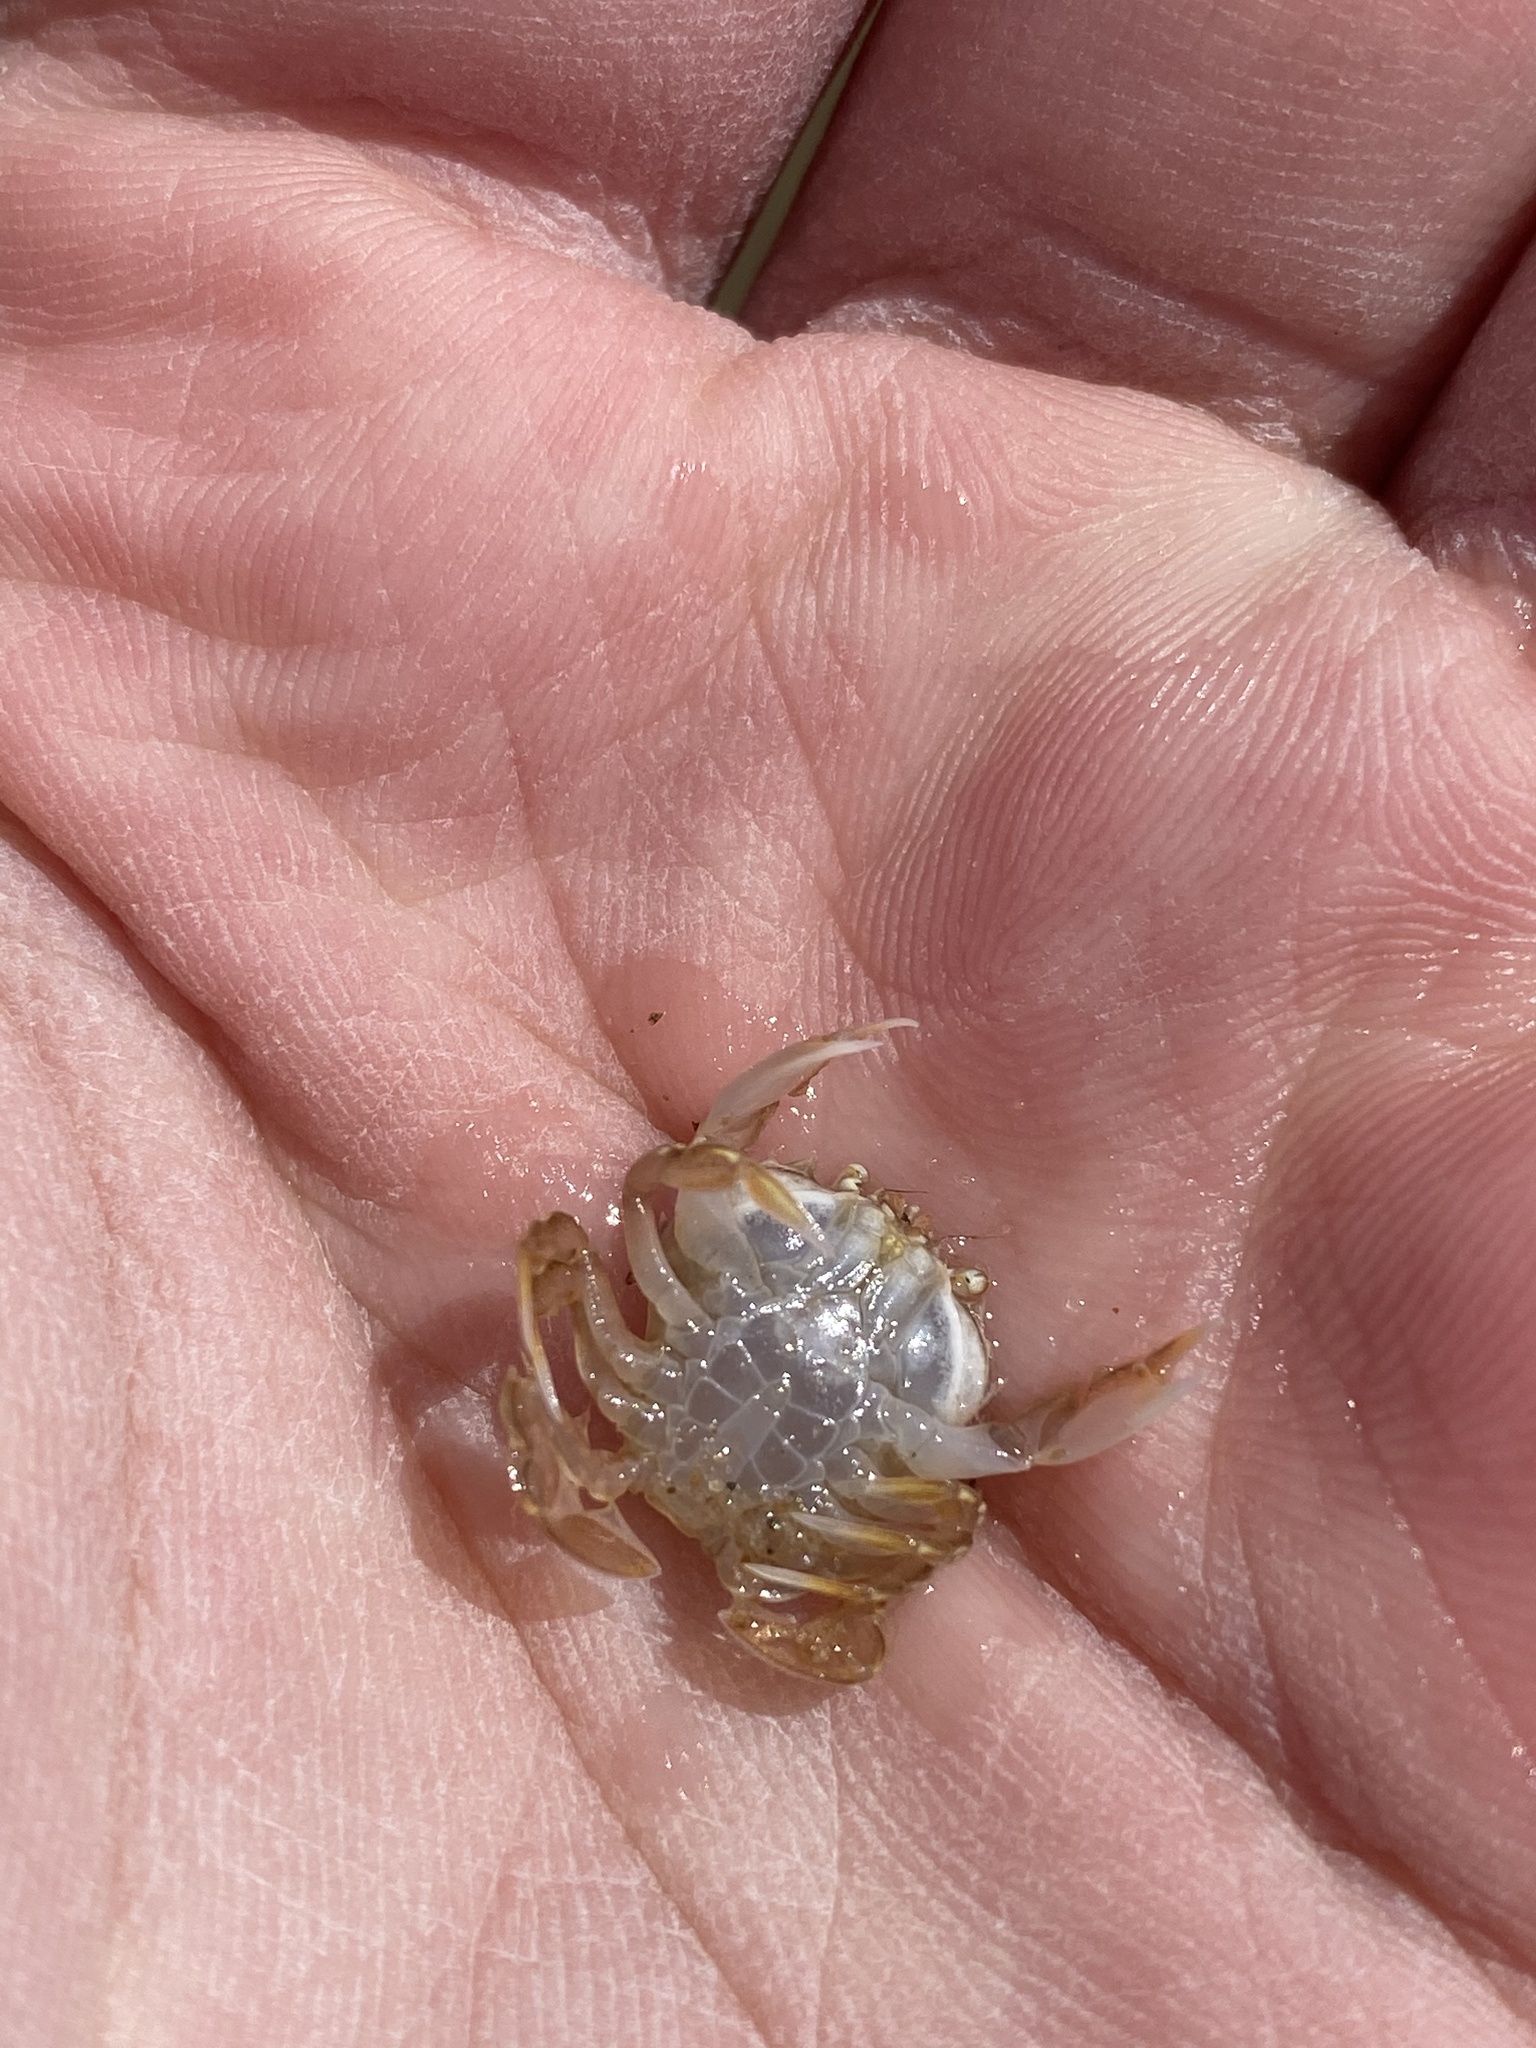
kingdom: Animalia
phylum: Arthropoda
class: Malacostraca
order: Decapoda
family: Carcinidae
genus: Portumnus
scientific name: Portumnus latipes
